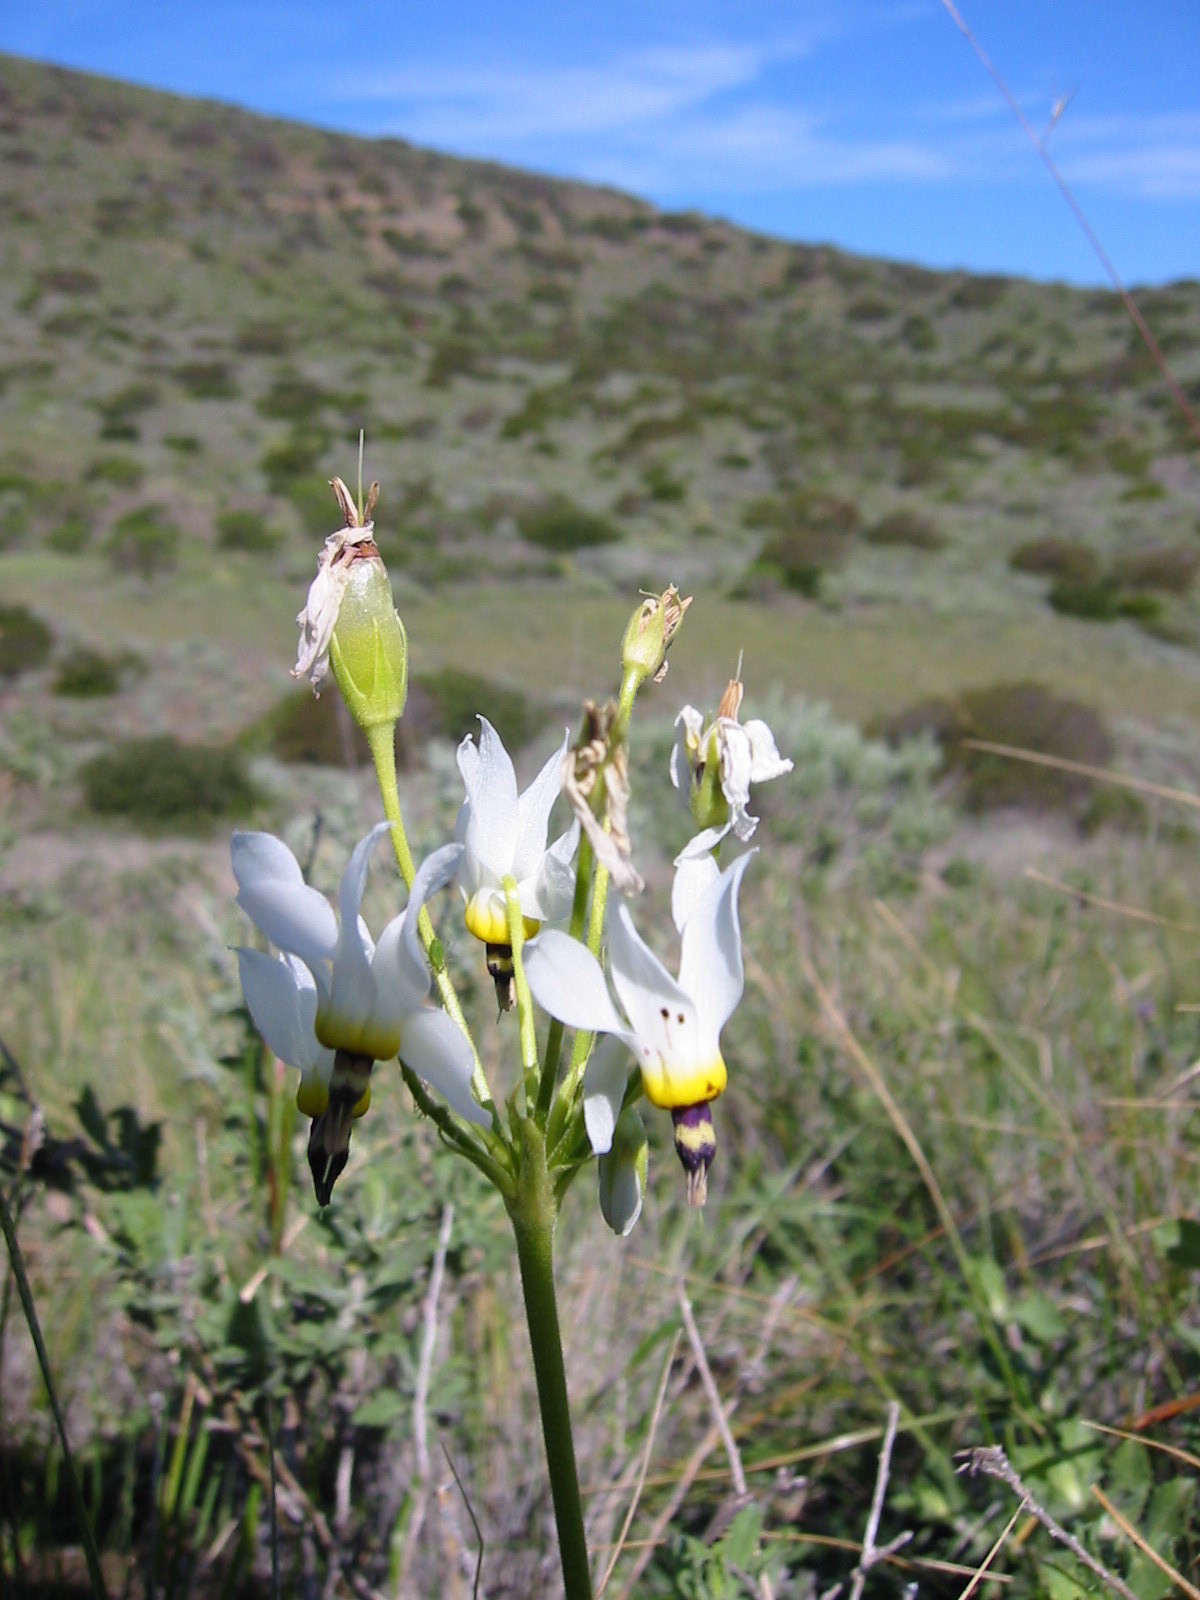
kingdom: Plantae
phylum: Tracheophyta
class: Magnoliopsida
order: Ericales
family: Primulaceae
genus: Dodecatheon
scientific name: Dodecatheon clevelandii
